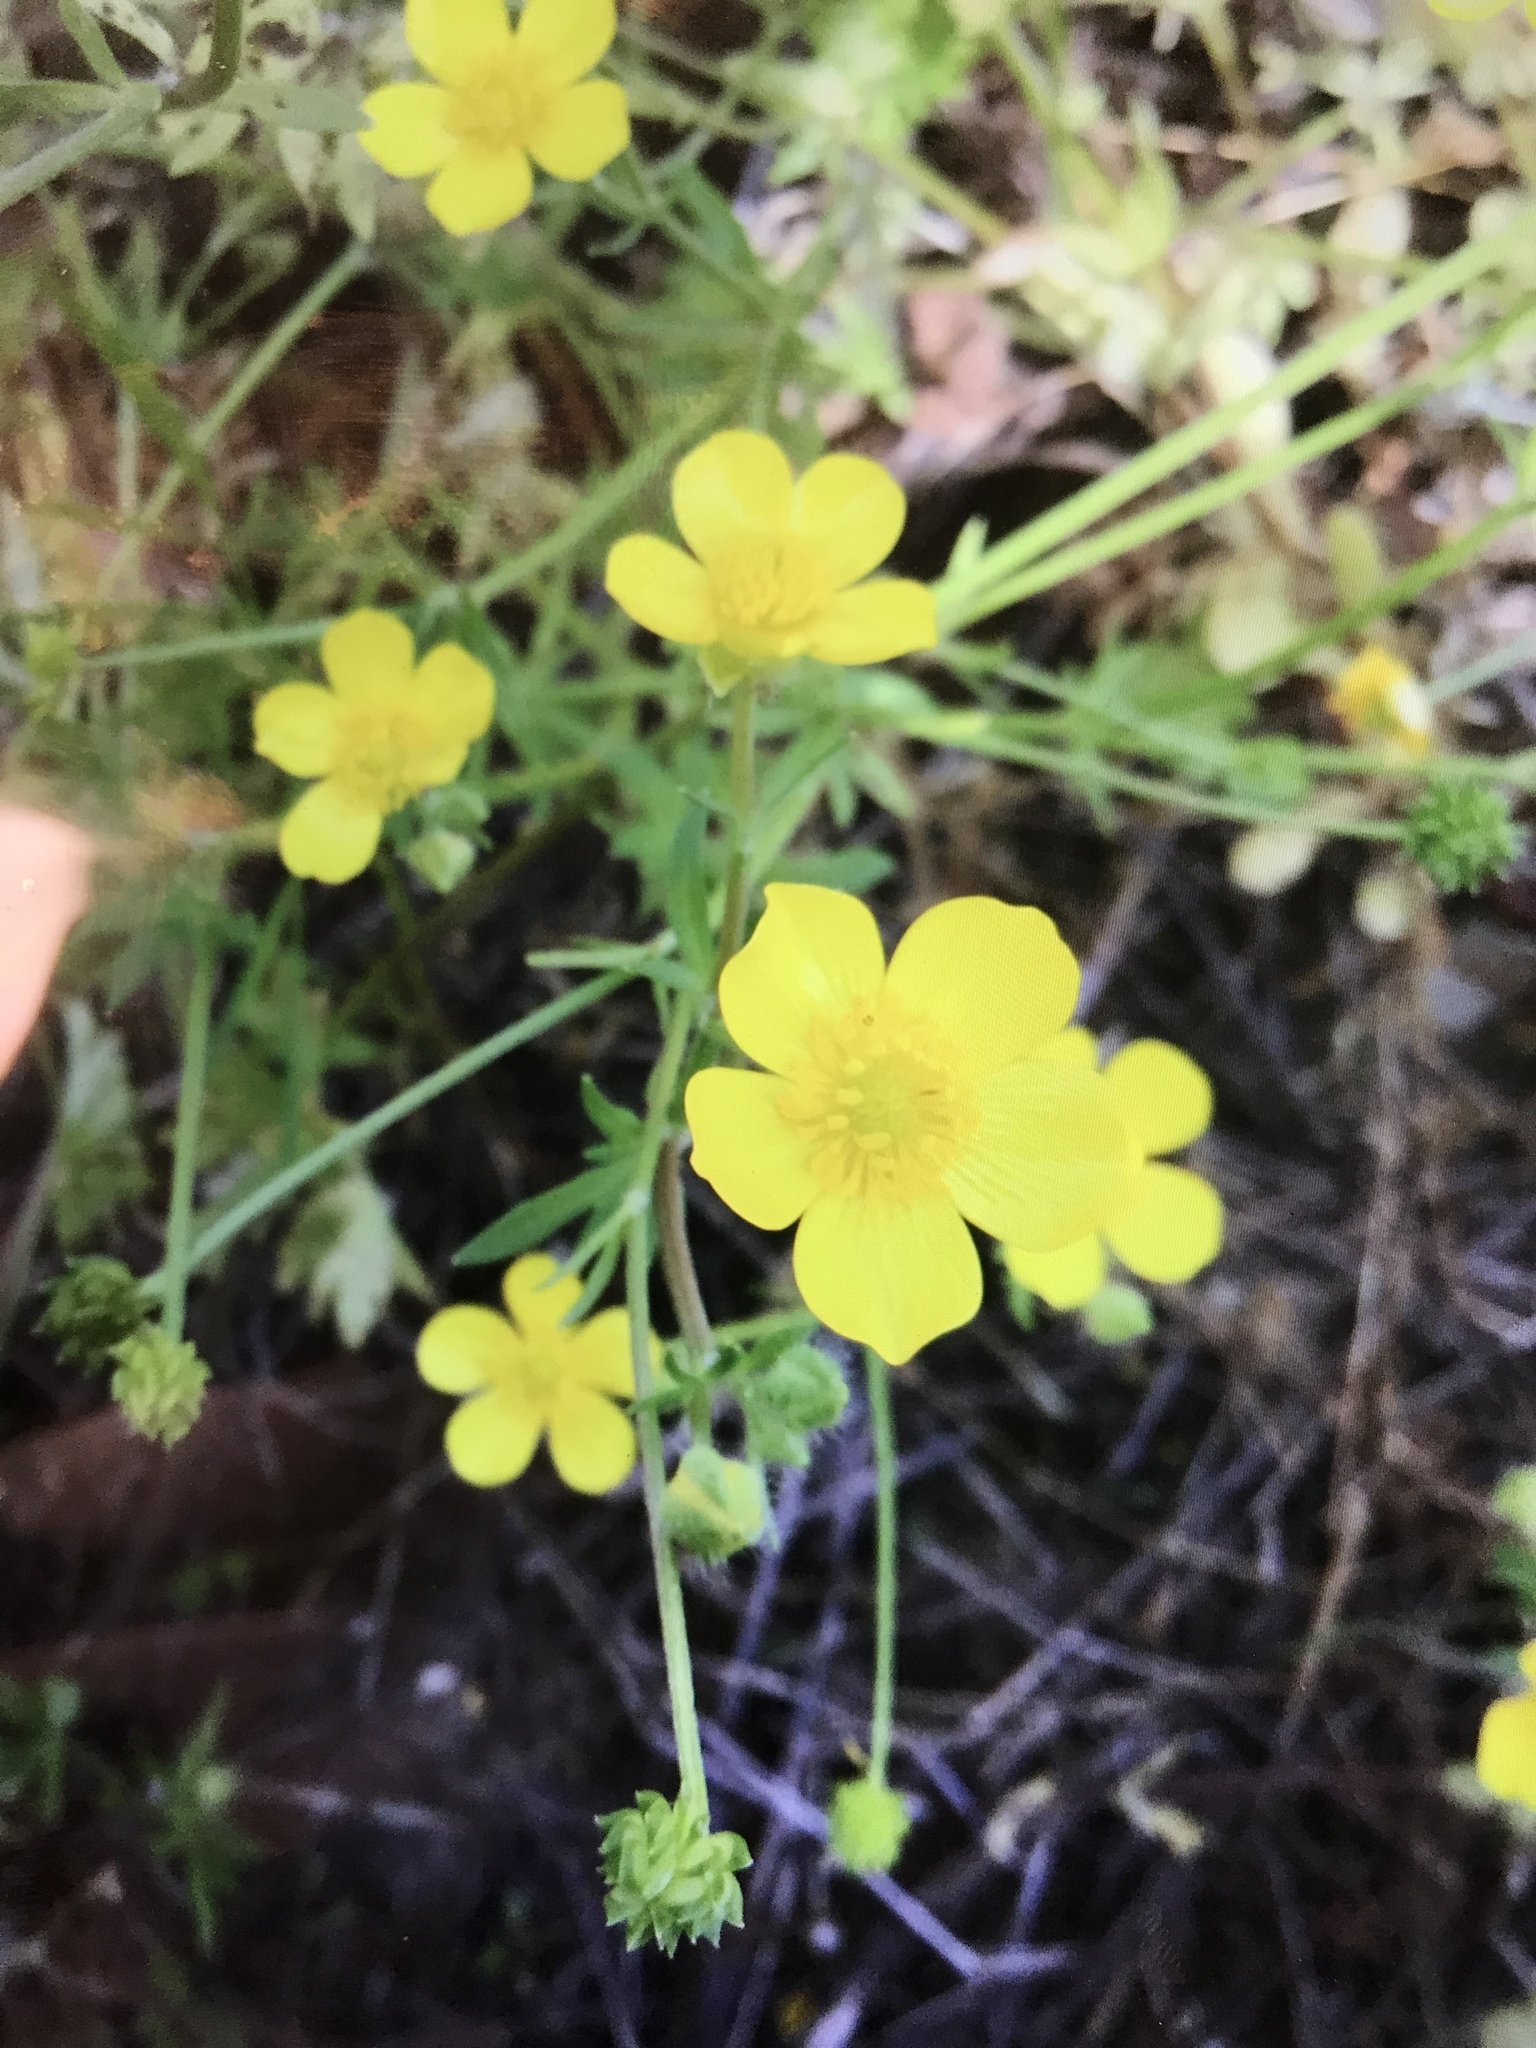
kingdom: Plantae
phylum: Tracheophyta
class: Magnoliopsida
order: Ranunculales
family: Ranunculaceae
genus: Ranunculus
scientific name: Ranunculus sardous
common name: Hairy buttercup
